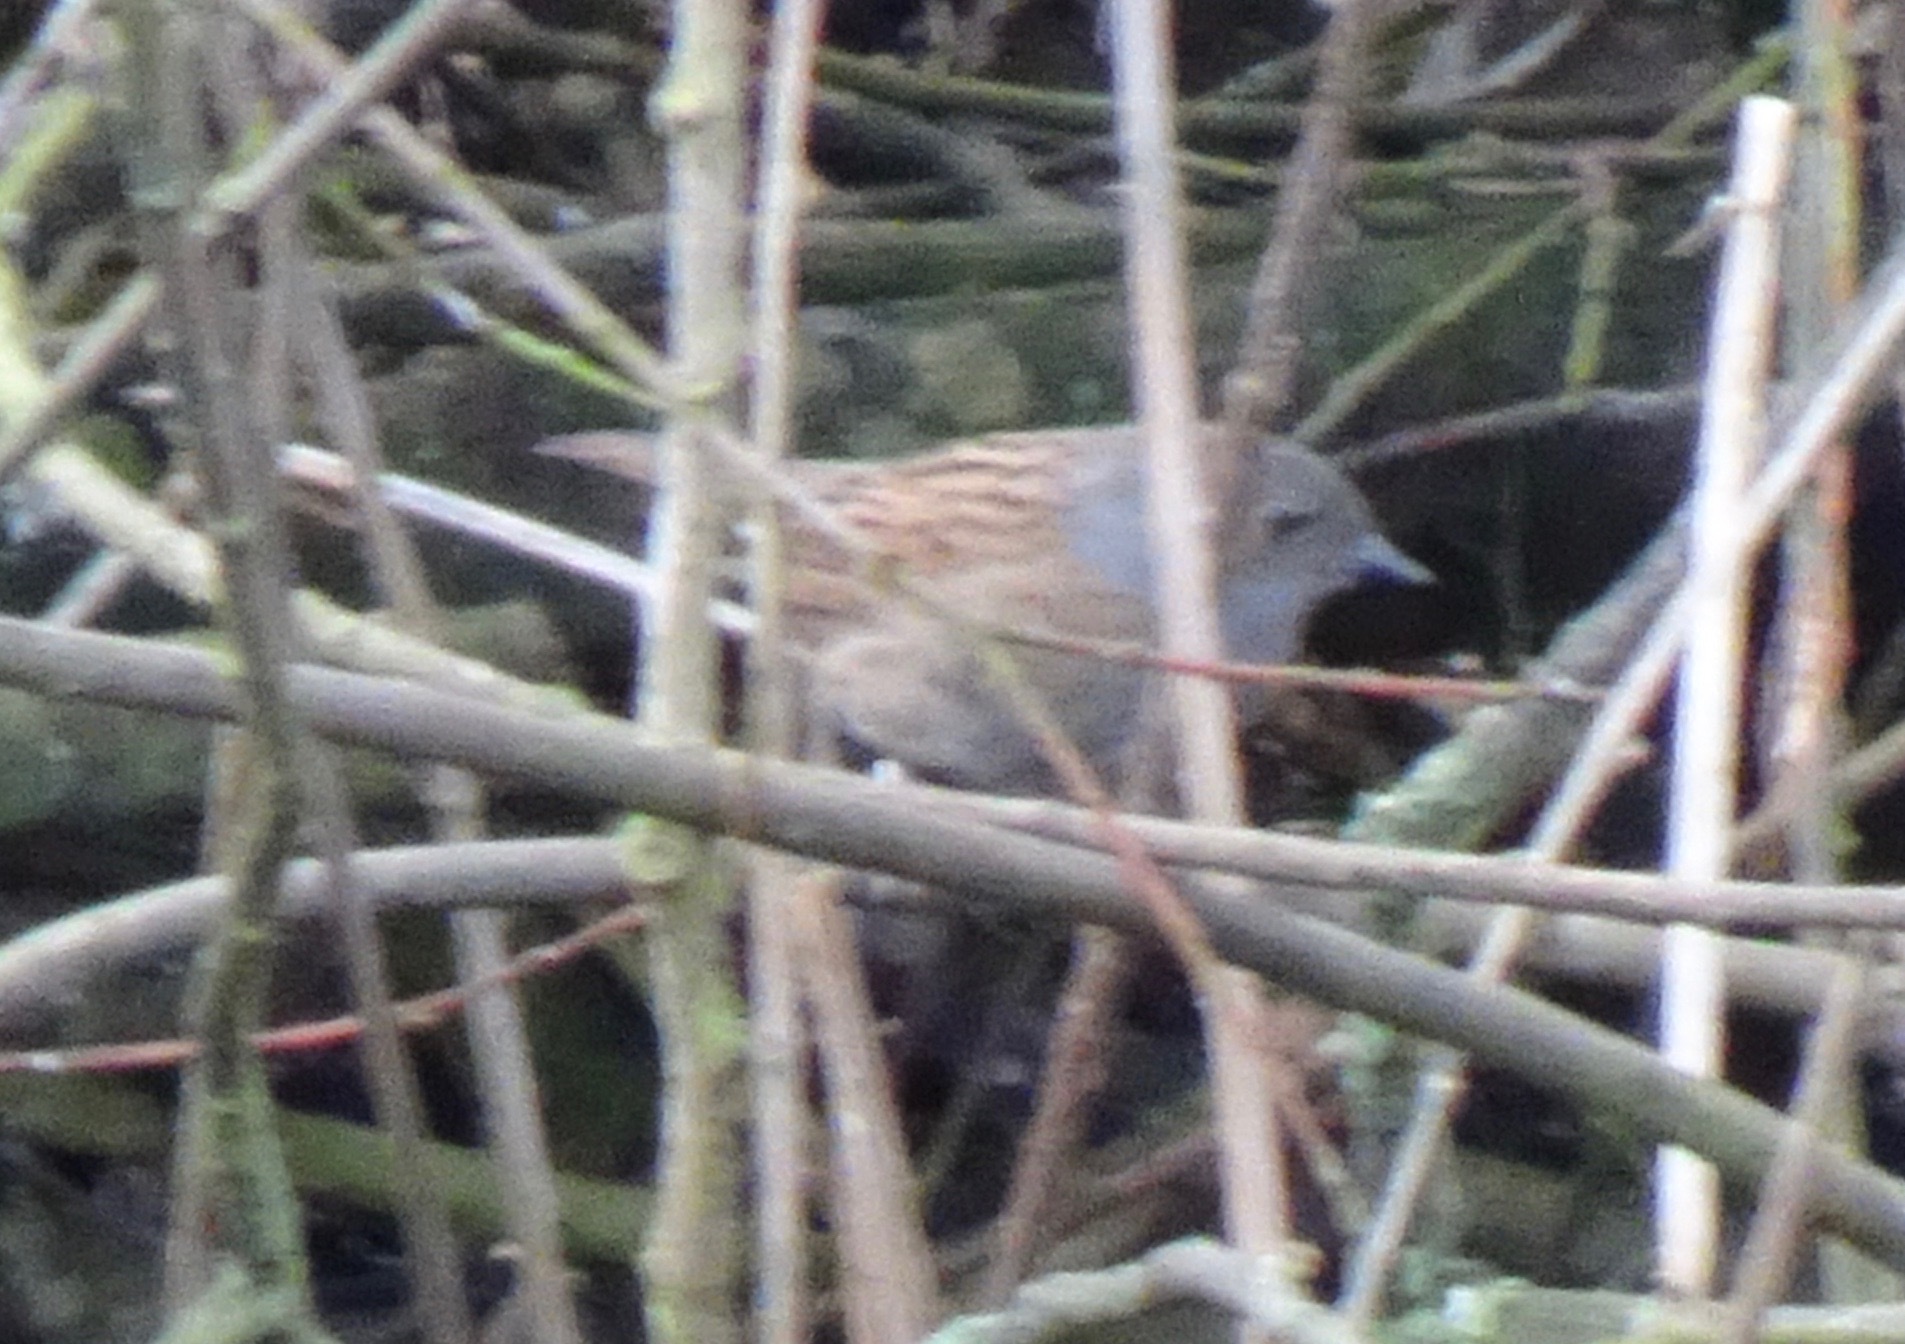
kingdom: Animalia
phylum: Chordata
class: Aves
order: Passeriformes
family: Prunellidae
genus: Prunella
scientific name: Prunella modularis
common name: Dunnock
